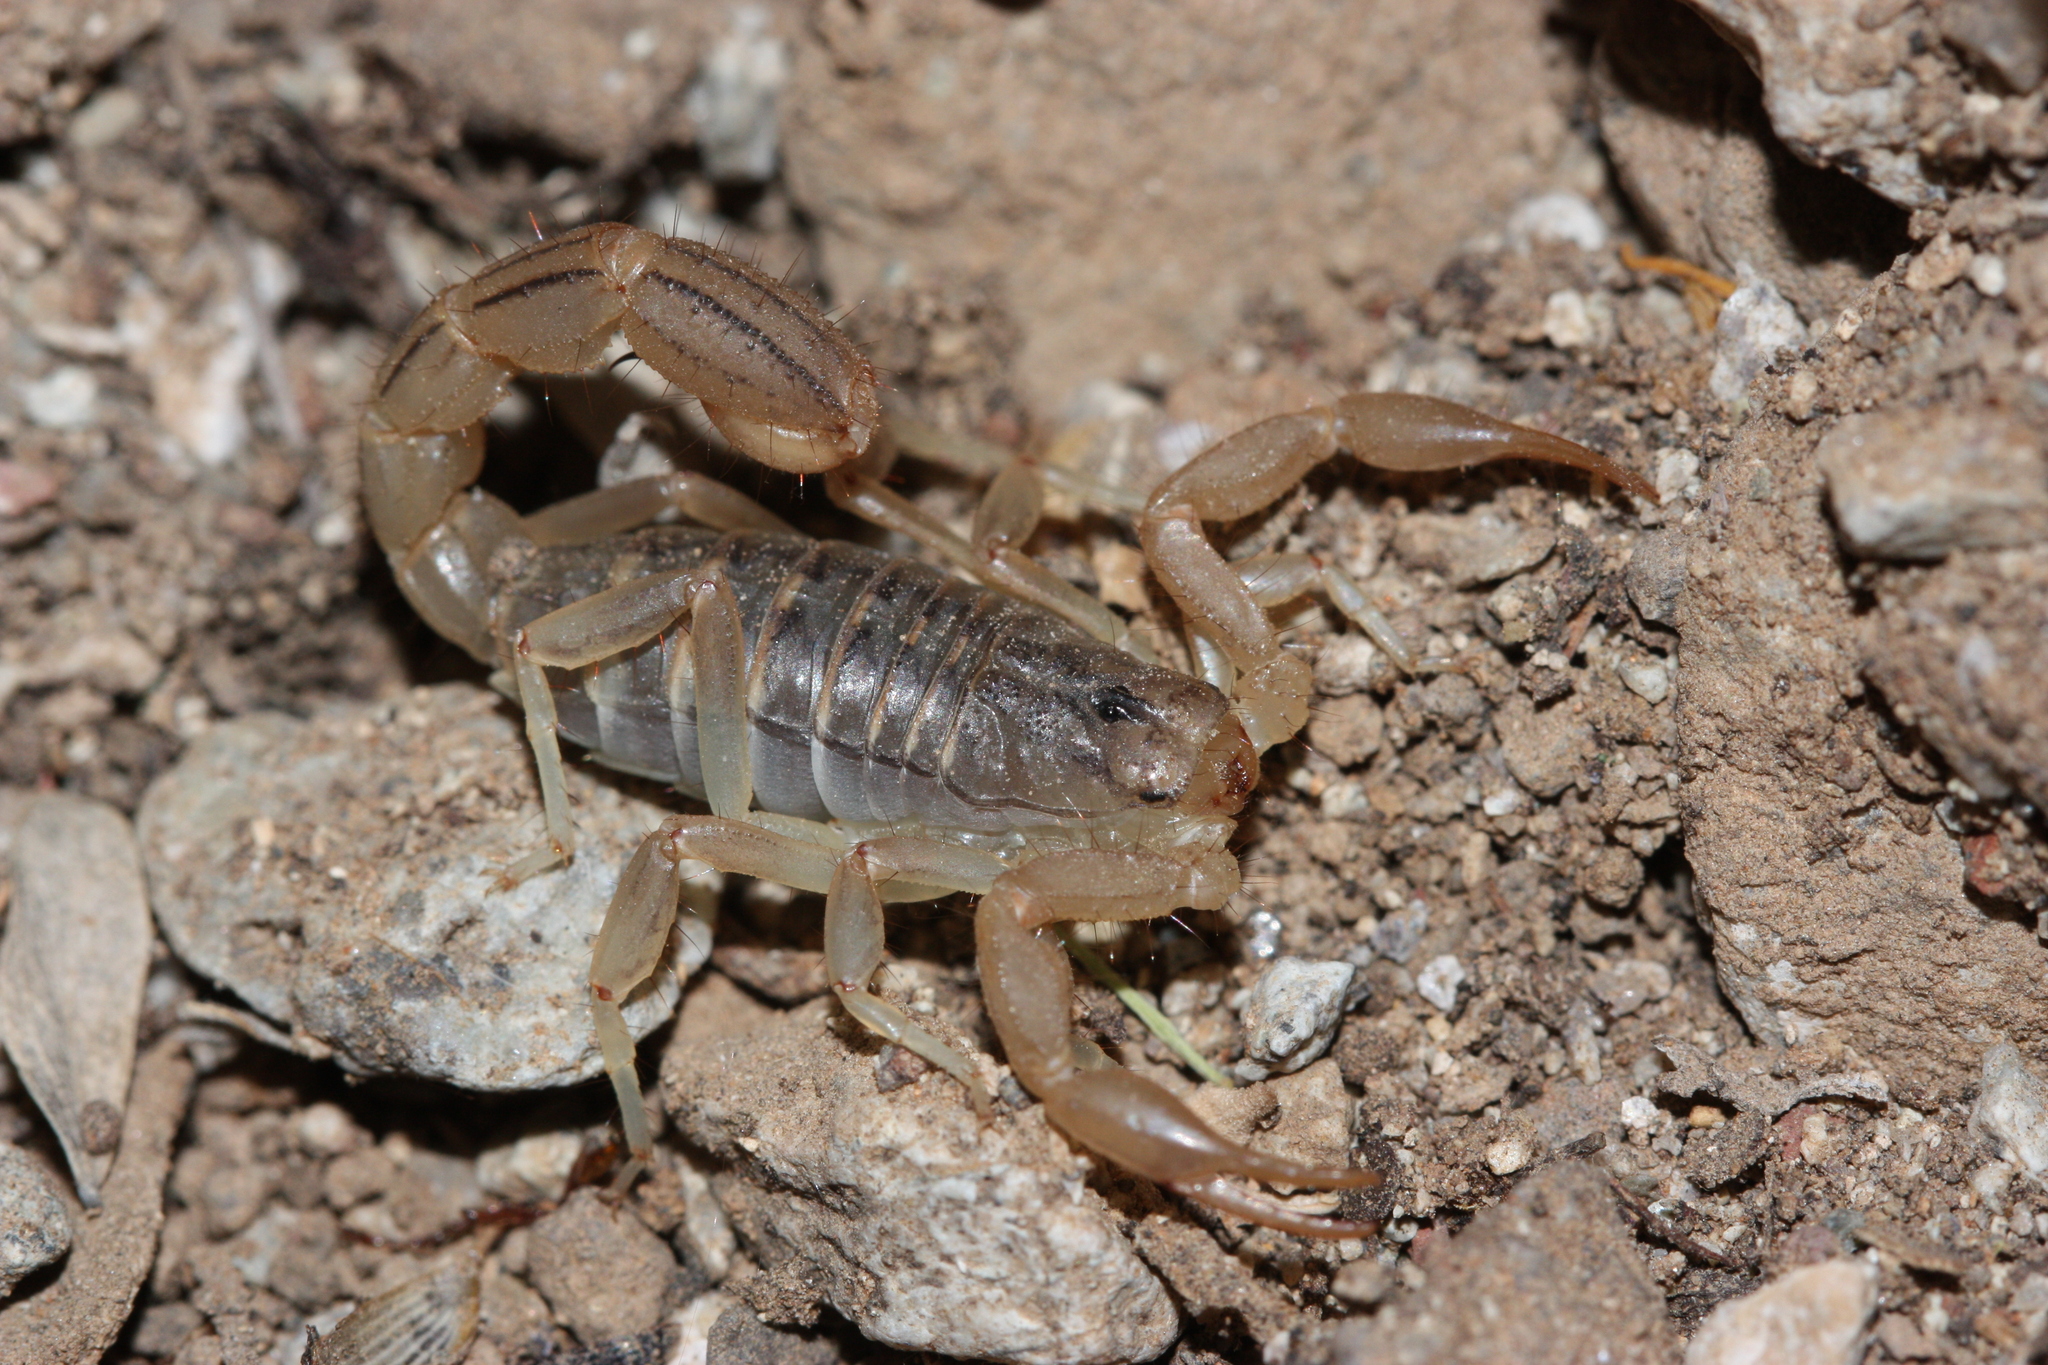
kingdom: Animalia
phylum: Arthropoda
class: Arachnida
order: Scorpiones
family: Vaejovidae
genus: Paravaejovis
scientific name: Paravaejovis spinigerus
